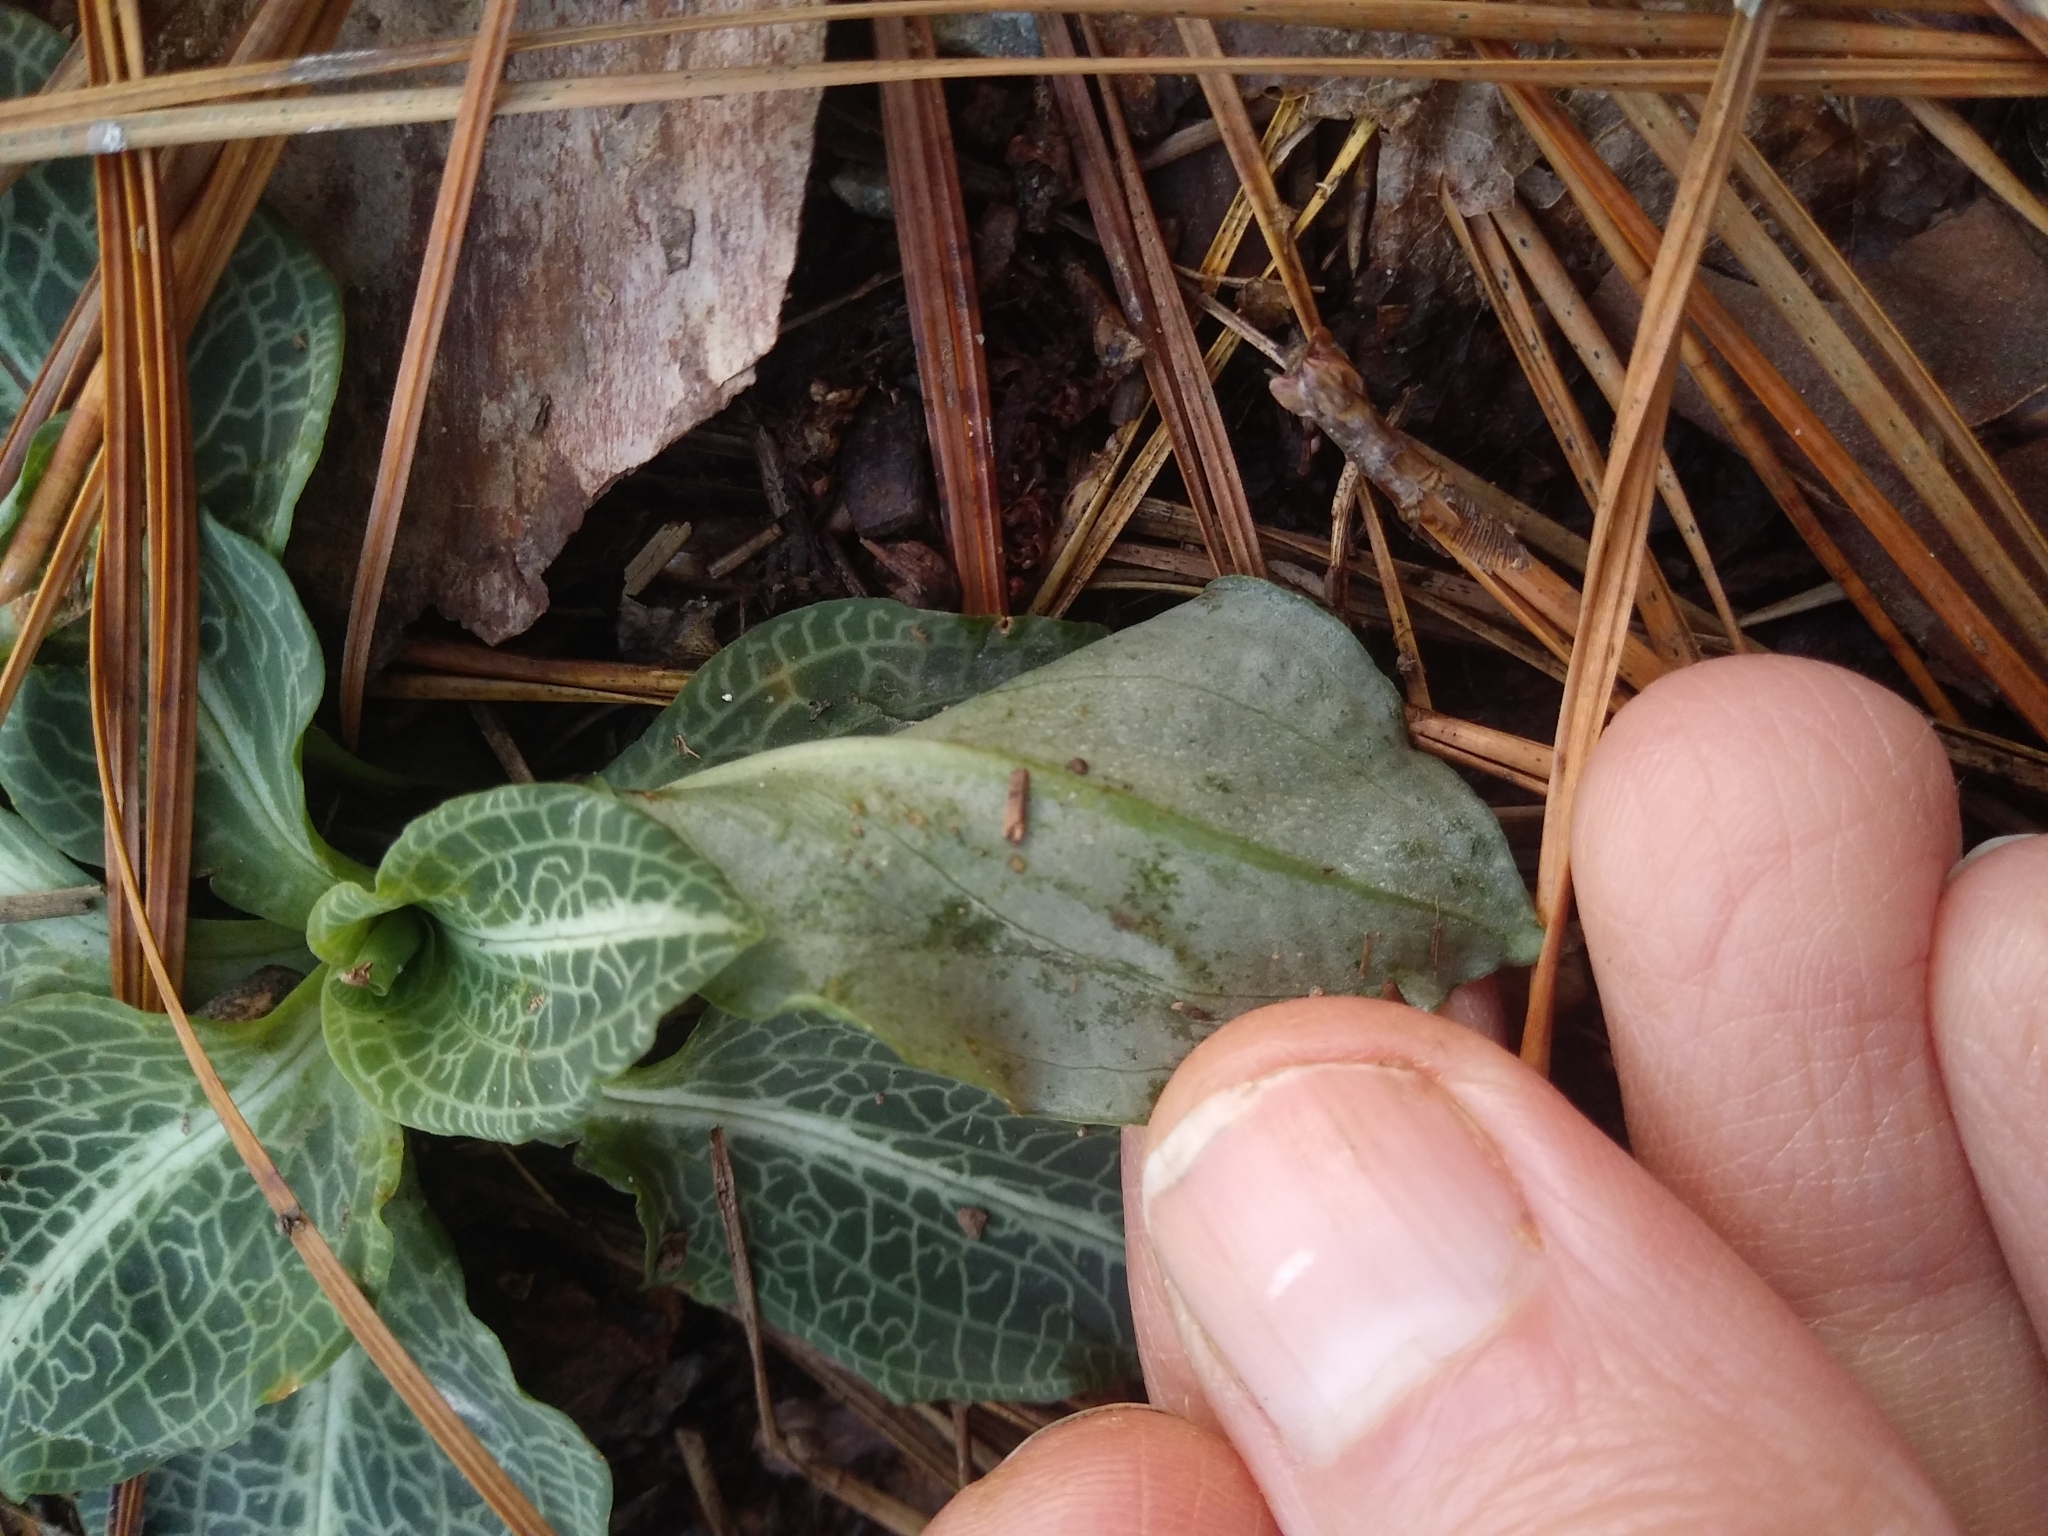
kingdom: Plantae
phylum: Tracheophyta
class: Liliopsida
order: Asparagales
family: Orchidaceae
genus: Goodyera
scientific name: Goodyera pubescens
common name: Downy rattlesnake-plantain
